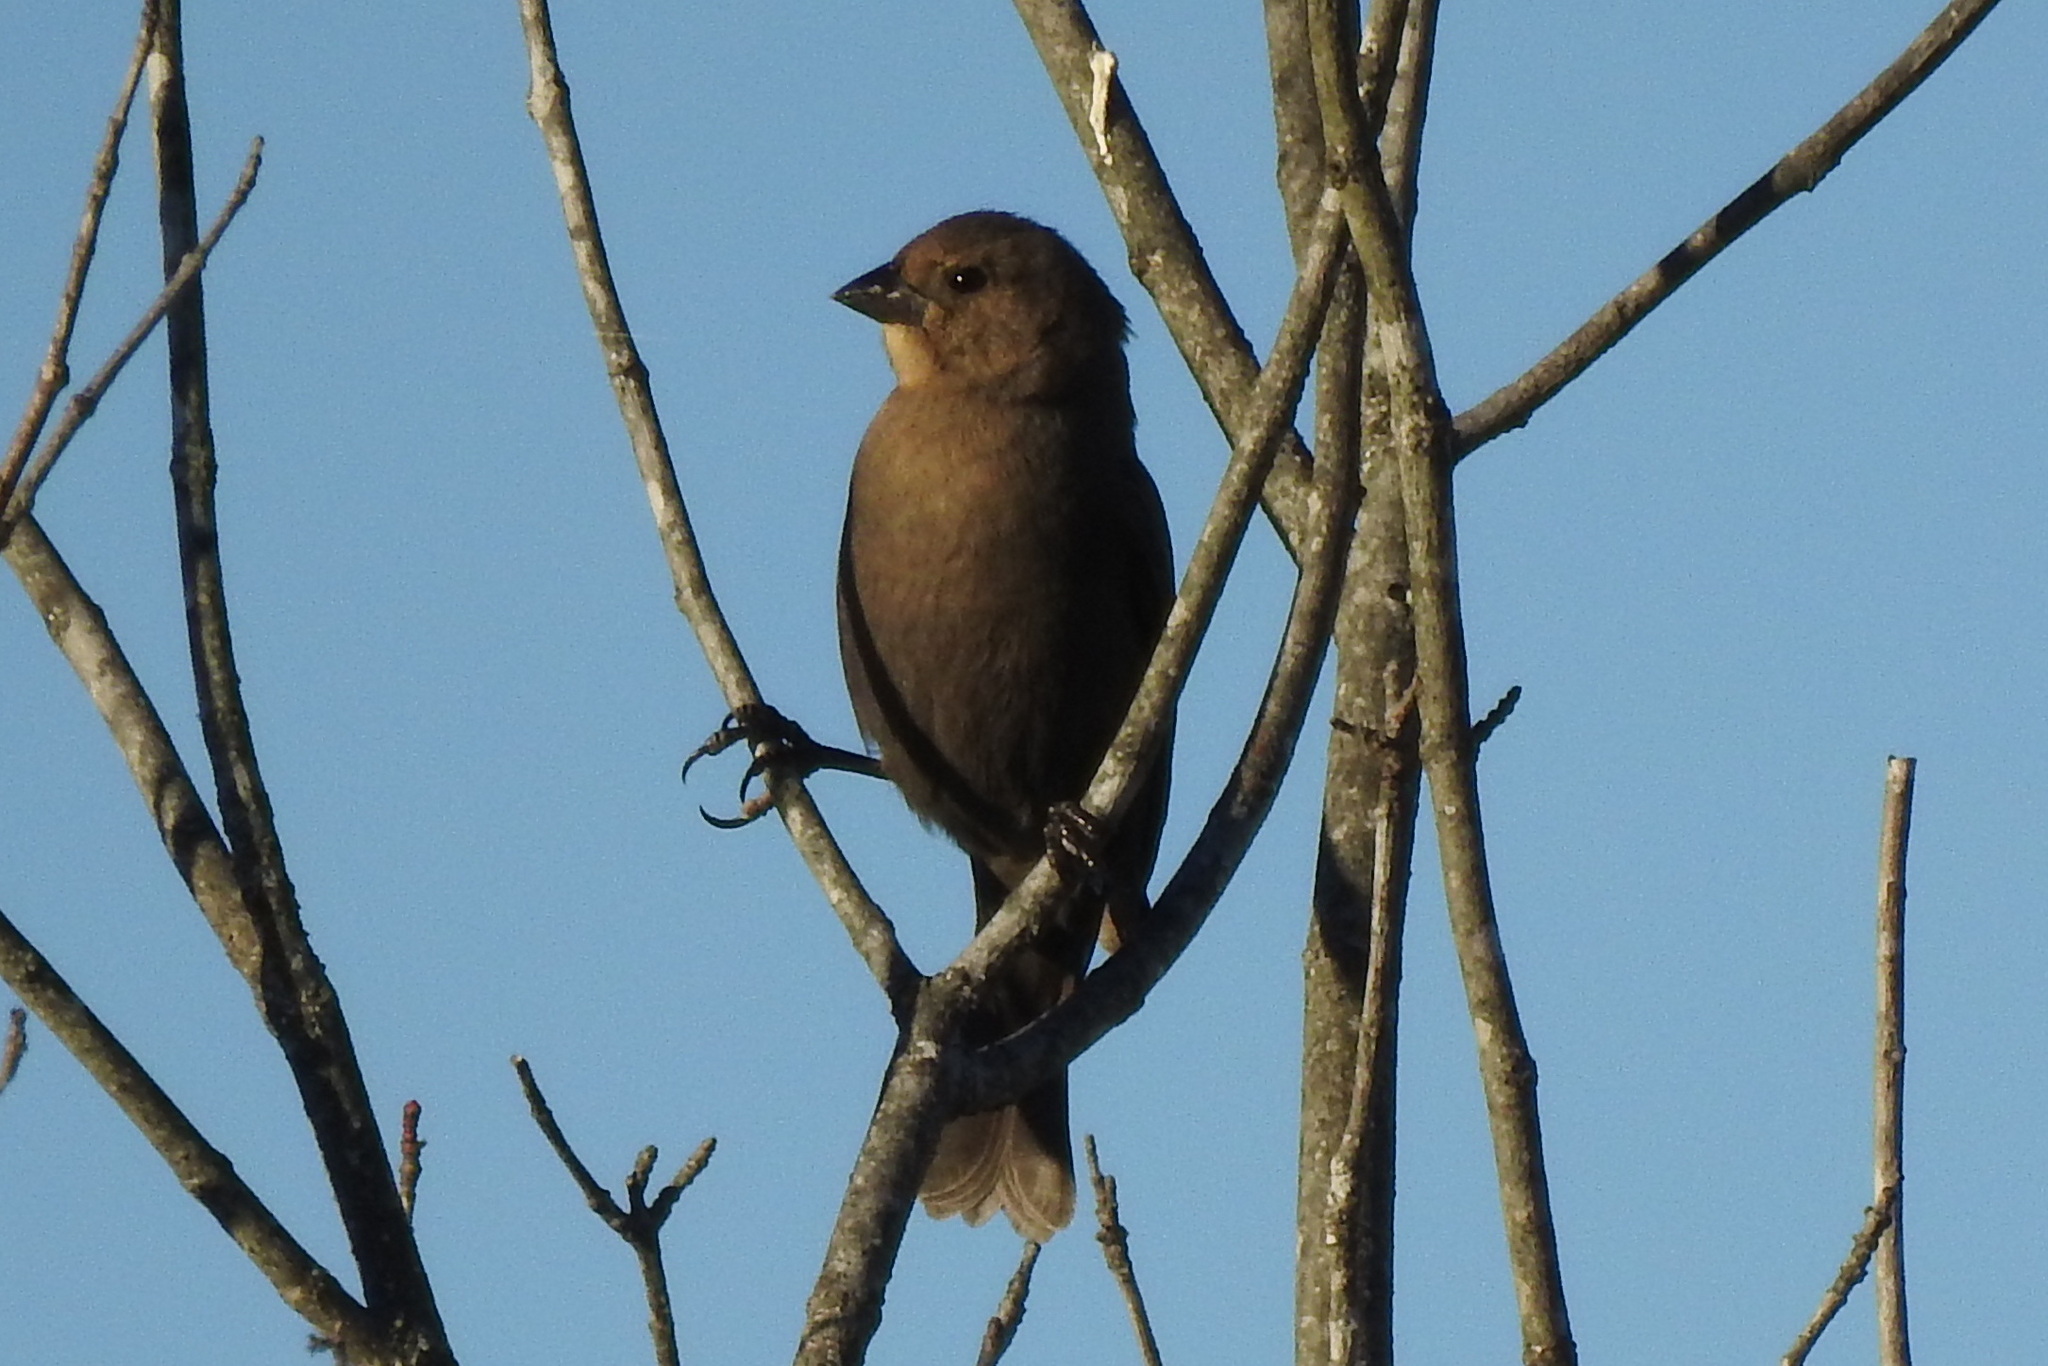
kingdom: Animalia
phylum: Chordata
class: Aves
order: Passeriformes
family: Icteridae
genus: Molothrus
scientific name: Molothrus ater
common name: Brown-headed cowbird
